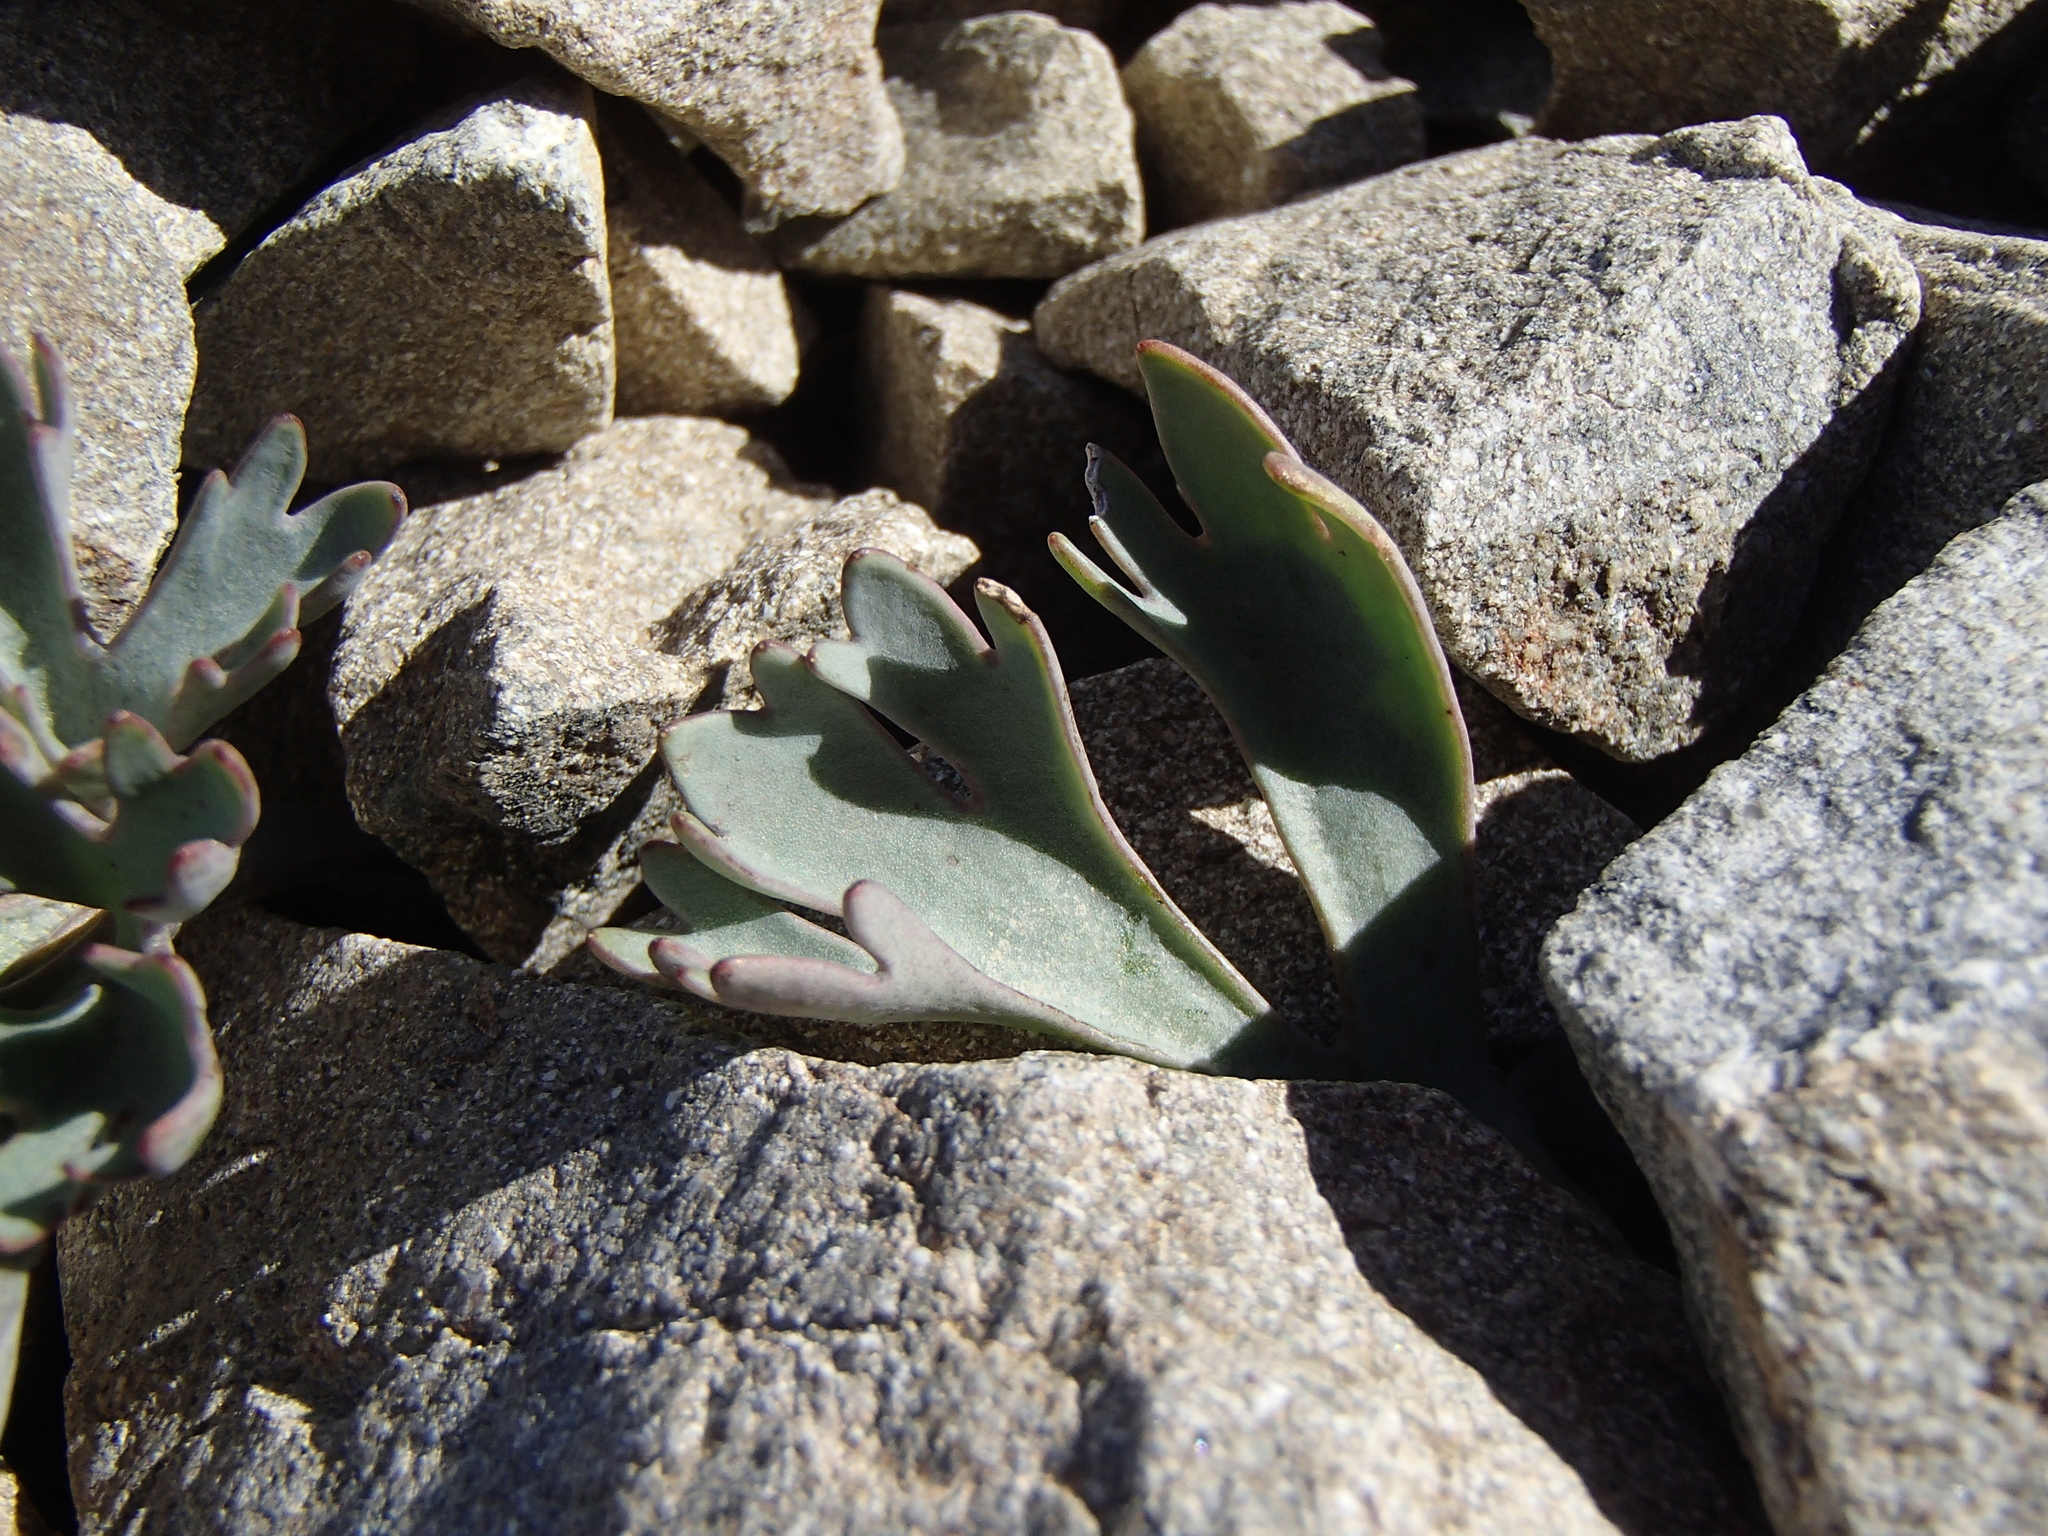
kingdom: Plantae
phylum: Tracheophyta
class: Magnoliopsida
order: Ranunculales
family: Ranunculaceae
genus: Ranunculus
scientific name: Ranunculus haastii
